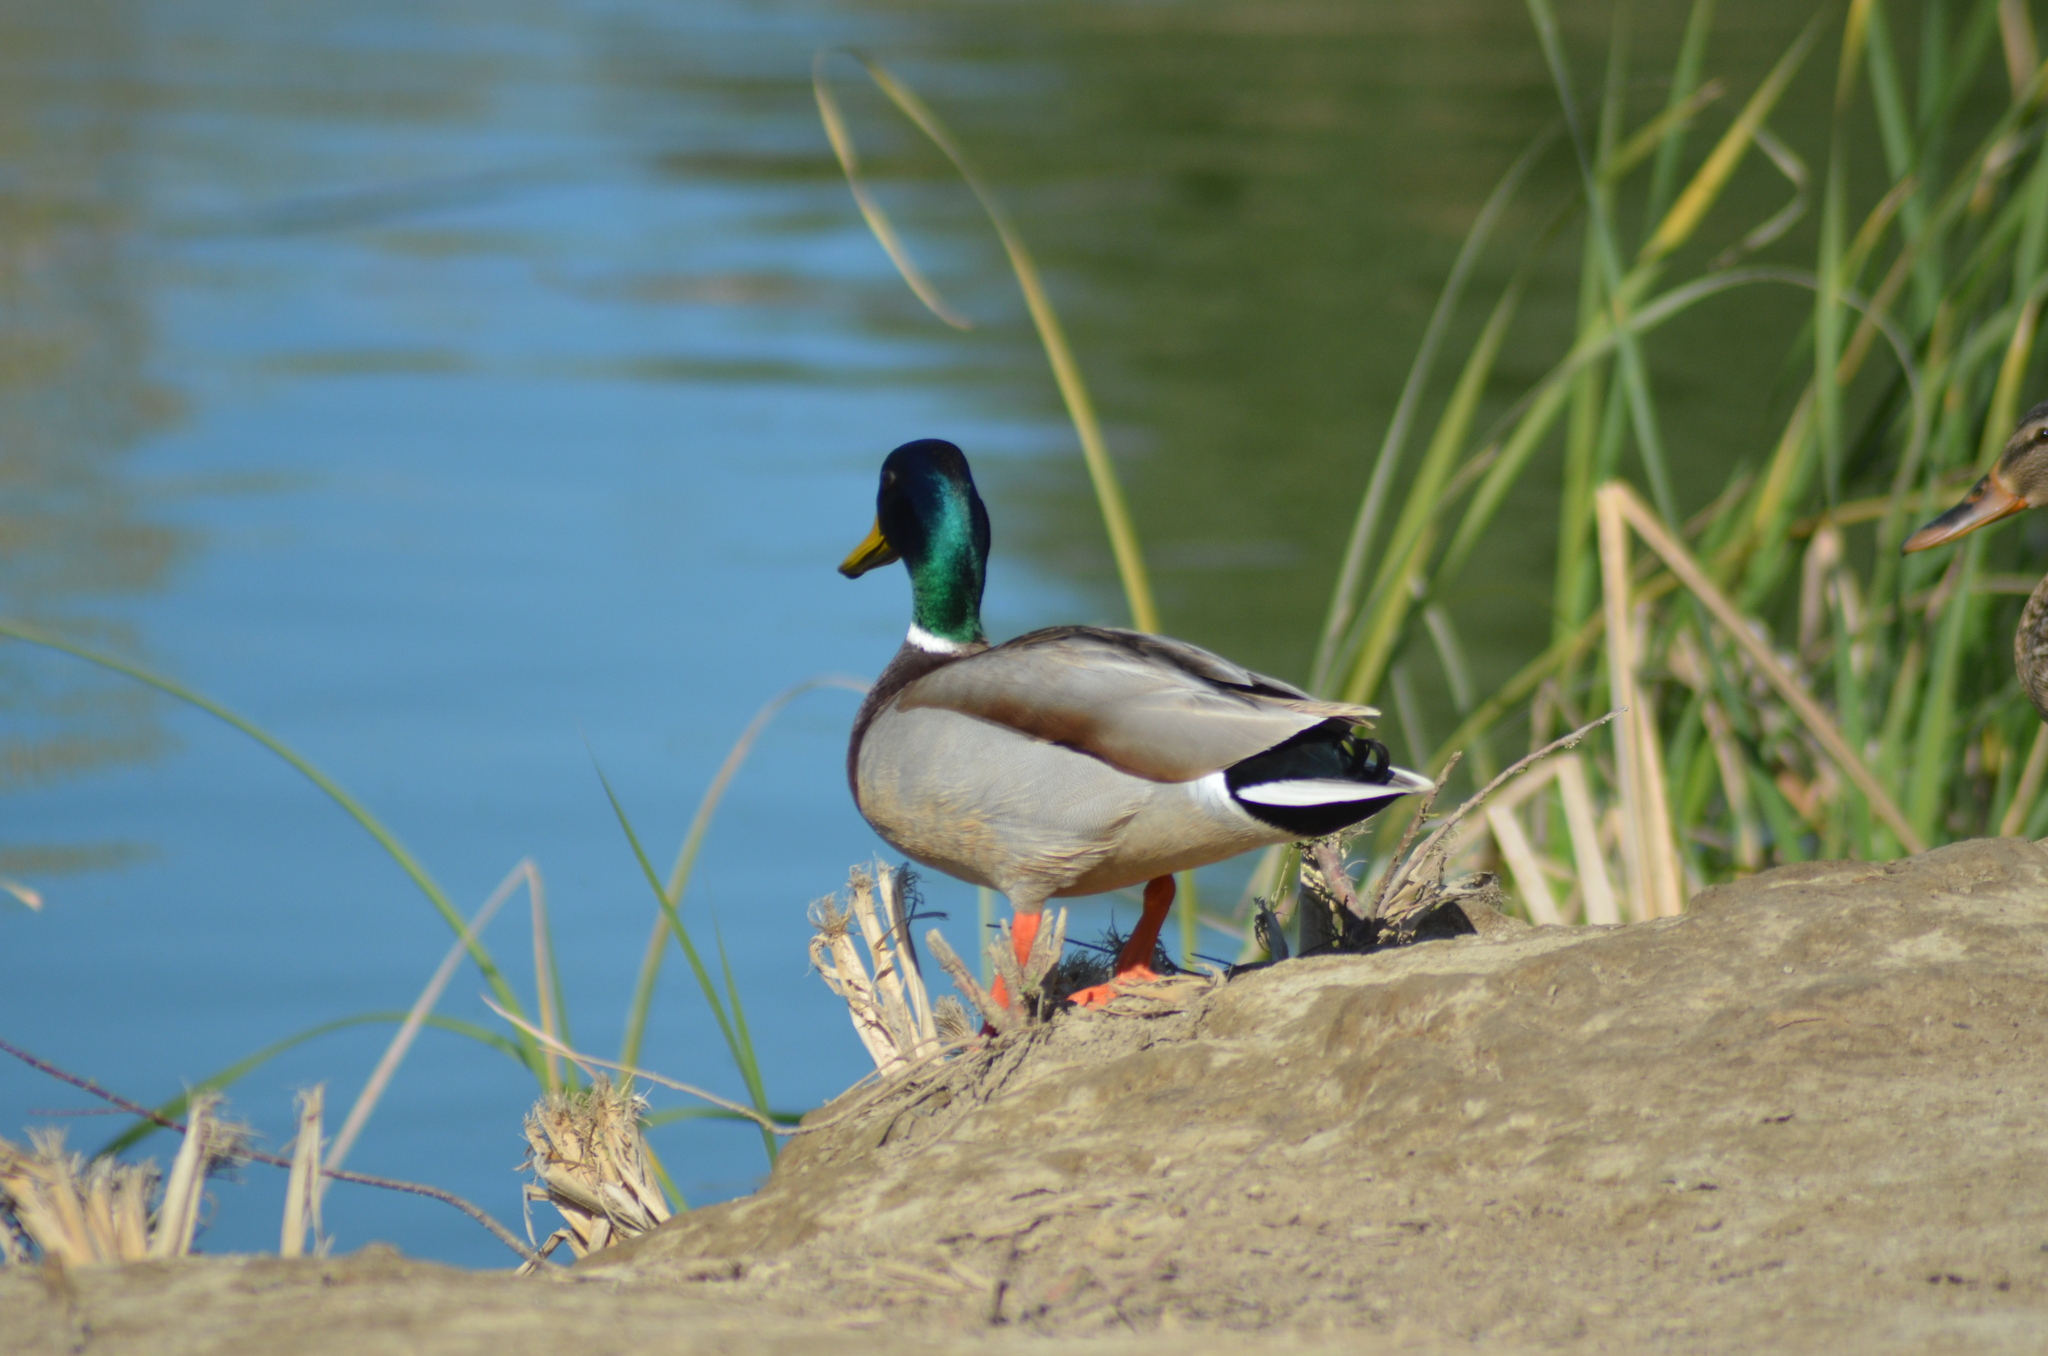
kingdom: Animalia
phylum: Chordata
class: Aves
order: Anseriformes
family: Anatidae
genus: Anas
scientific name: Anas platyrhynchos
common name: Mallard
